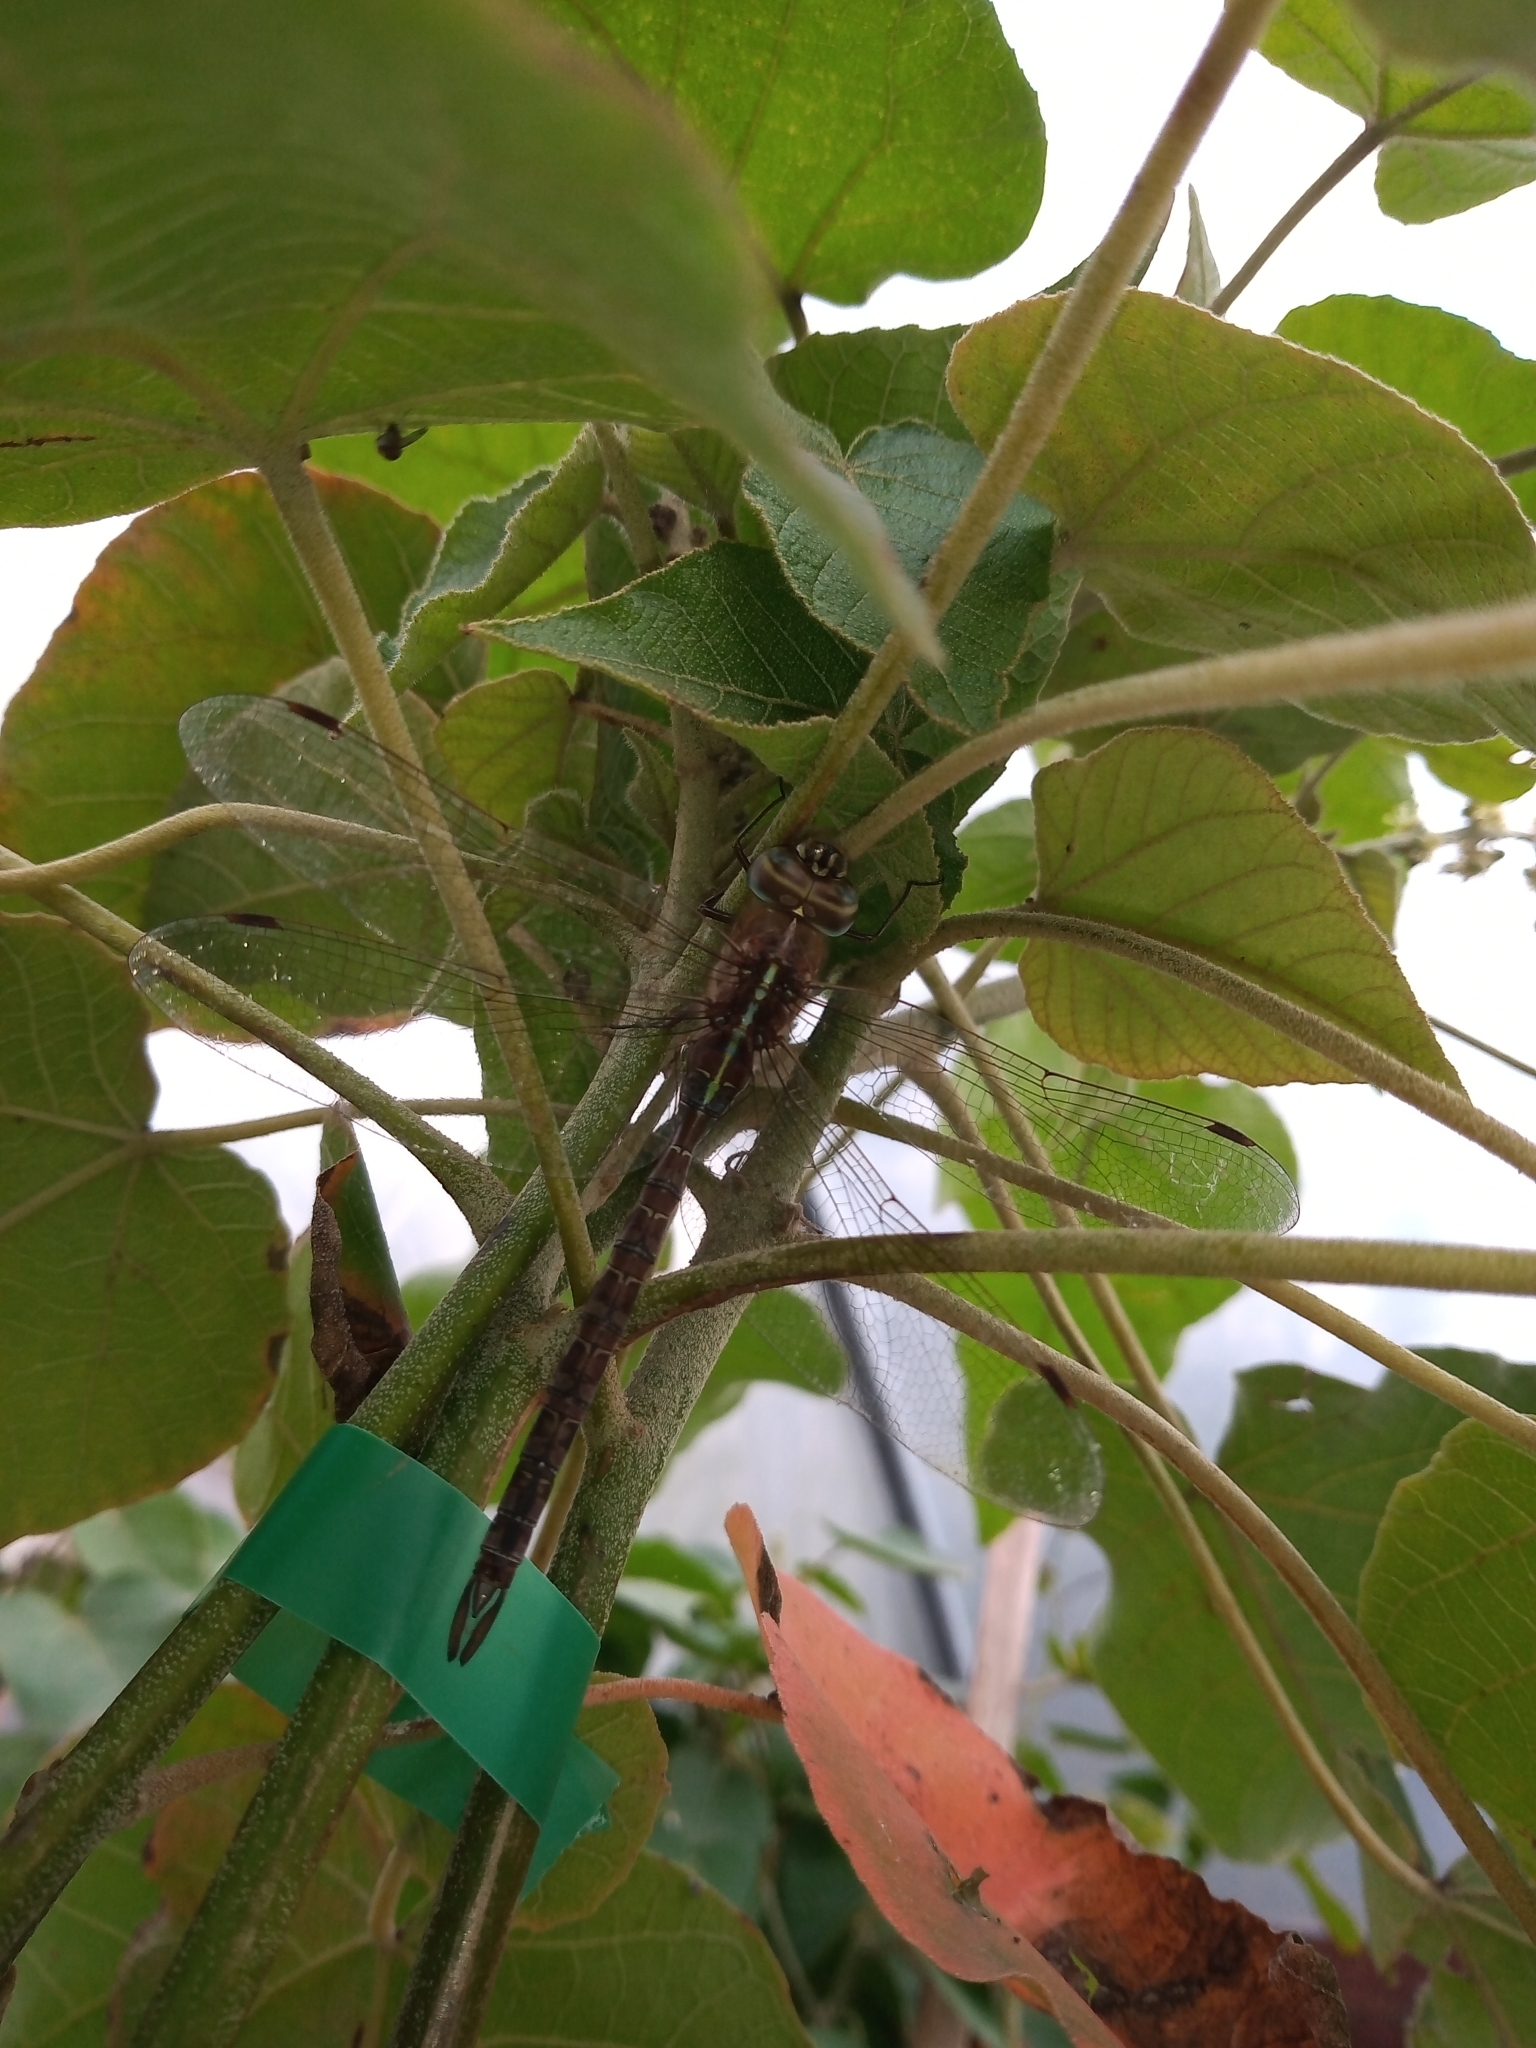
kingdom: Animalia
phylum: Arthropoda
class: Insecta
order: Odonata
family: Aeshnidae
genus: Rhionaeschna
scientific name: Rhionaeschna bonariensis
